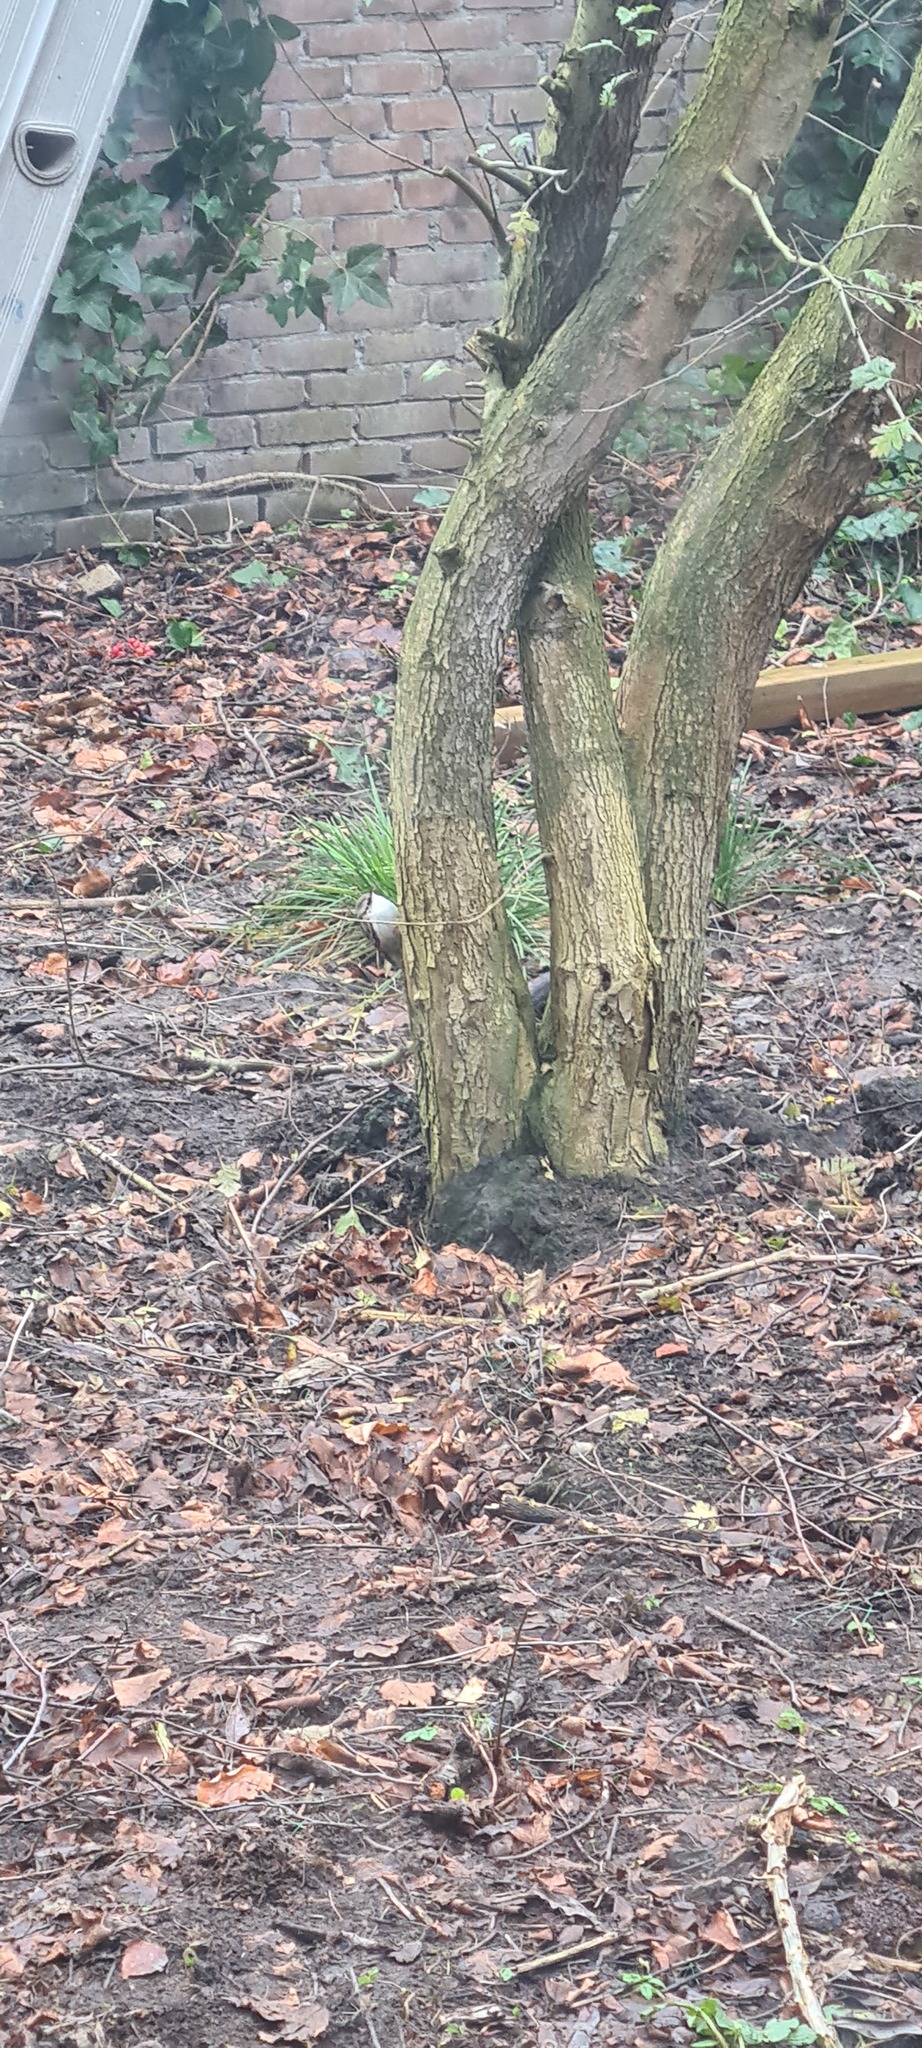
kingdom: Animalia
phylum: Chordata
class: Aves
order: Passeriformes
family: Certhiidae
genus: Certhia
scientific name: Certhia brachydactyla
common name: Short-toed treecreeper
